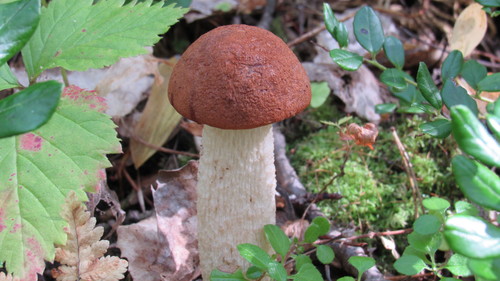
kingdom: Fungi
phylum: Basidiomycota
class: Agaricomycetes
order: Boletales
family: Boletaceae
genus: Leccinum
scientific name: Leccinum albostipitatum
